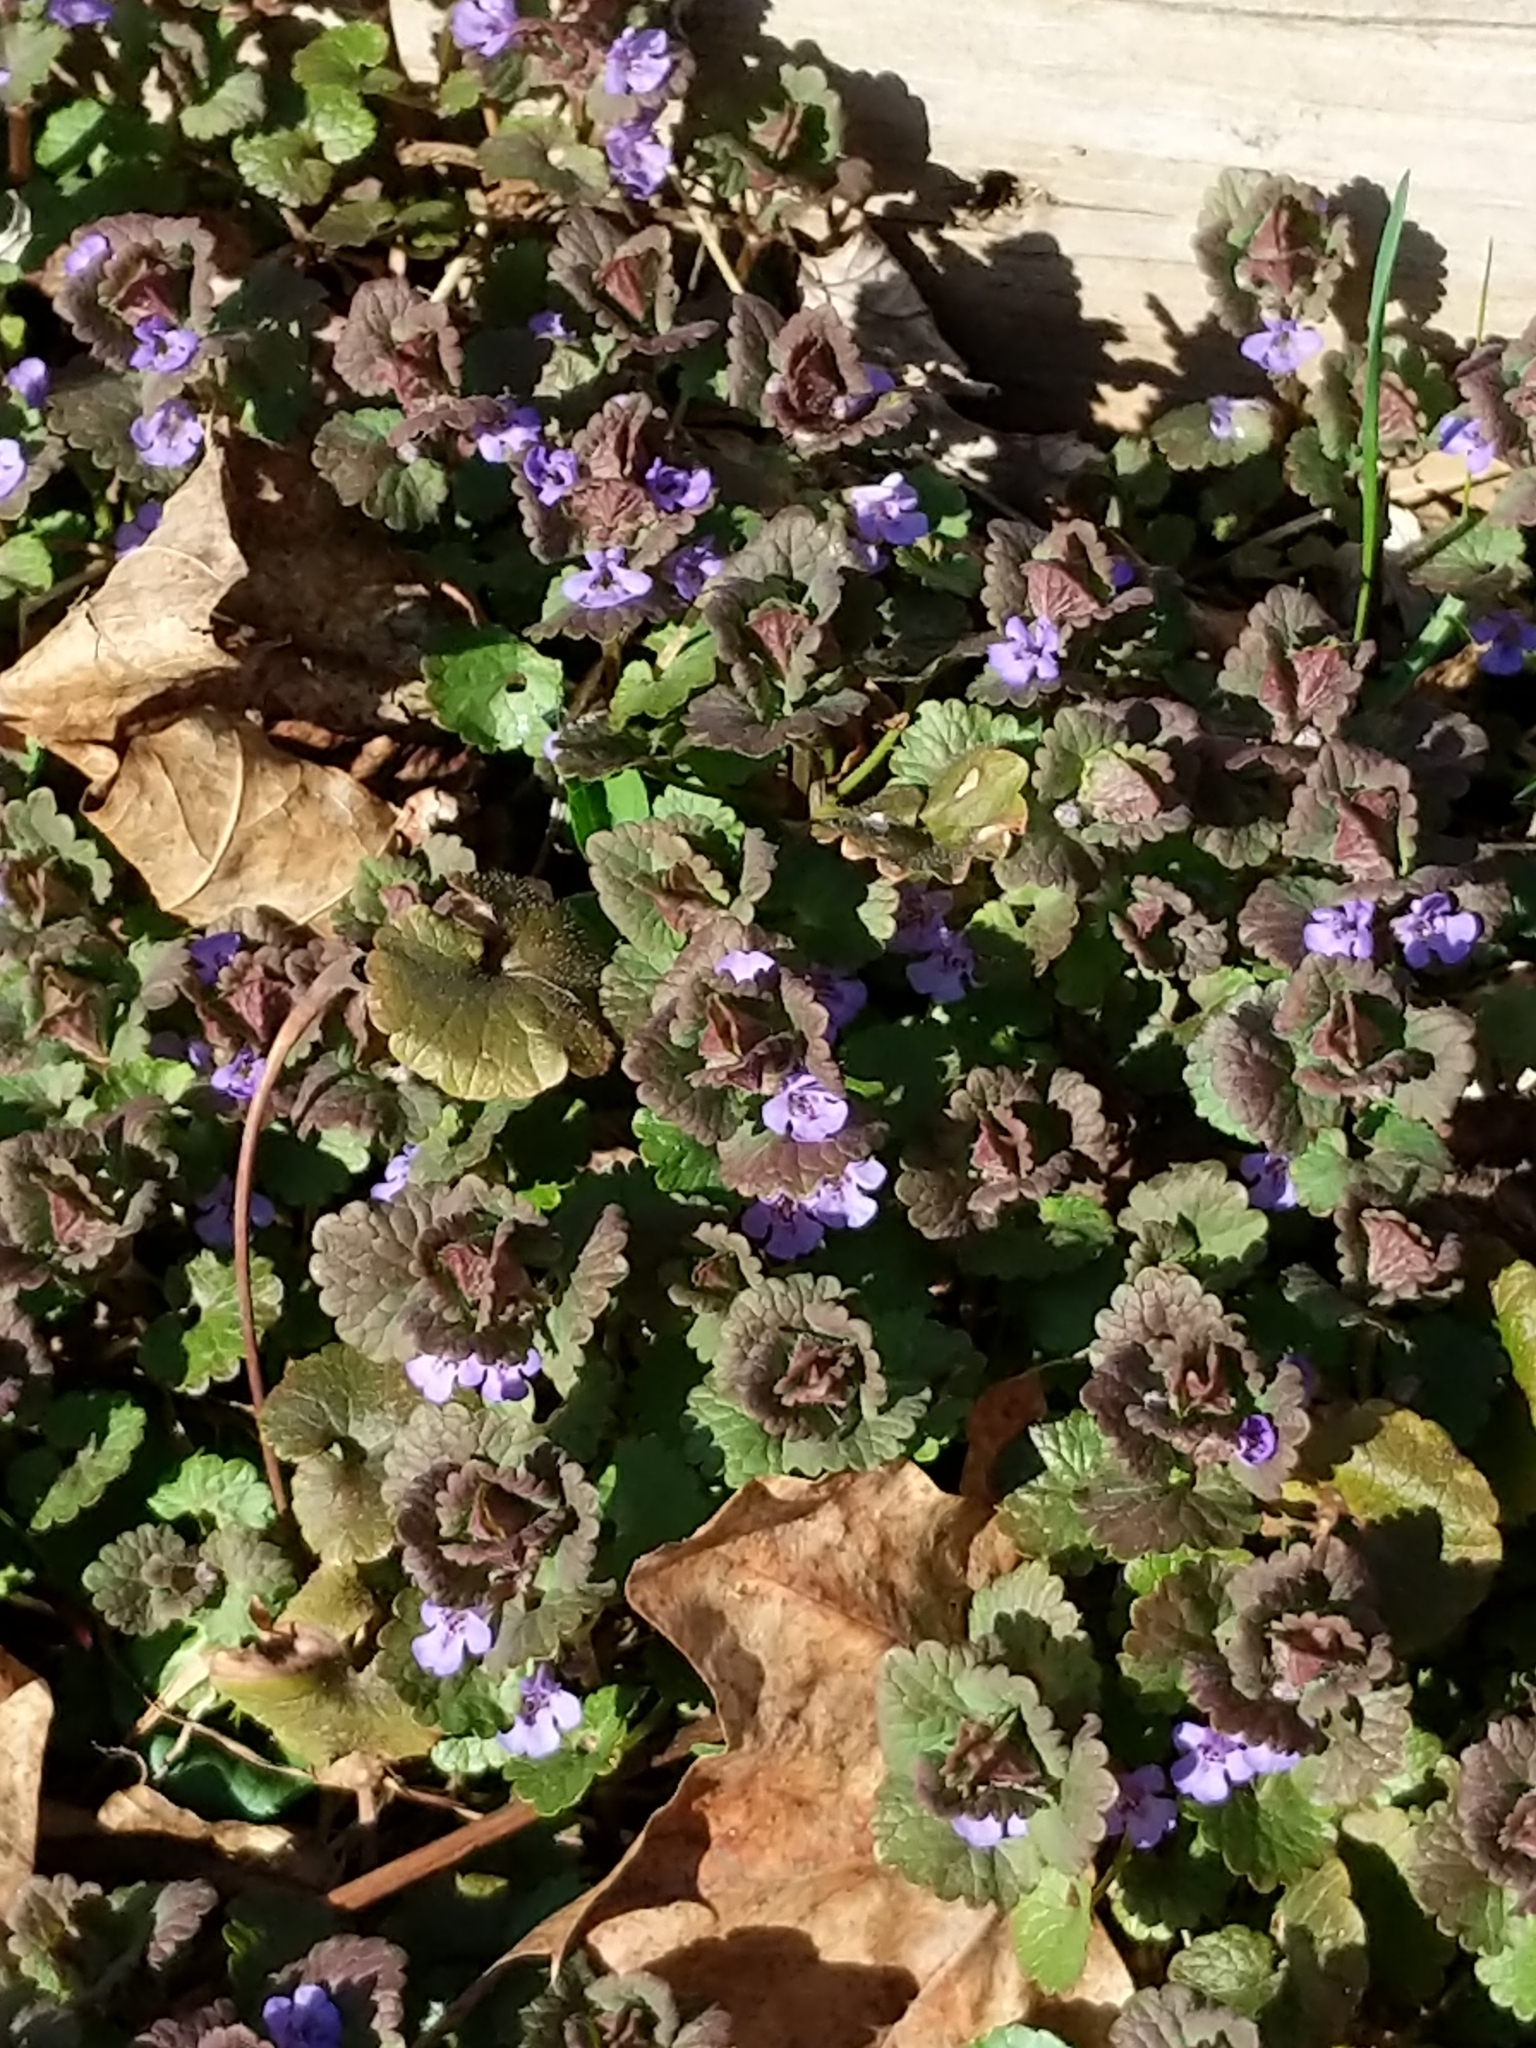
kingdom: Plantae
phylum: Tracheophyta
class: Magnoliopsida
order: Lamiales
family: Lamiaceae
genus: Glechoma
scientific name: Glechoma hederacea
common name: Ground ivy
